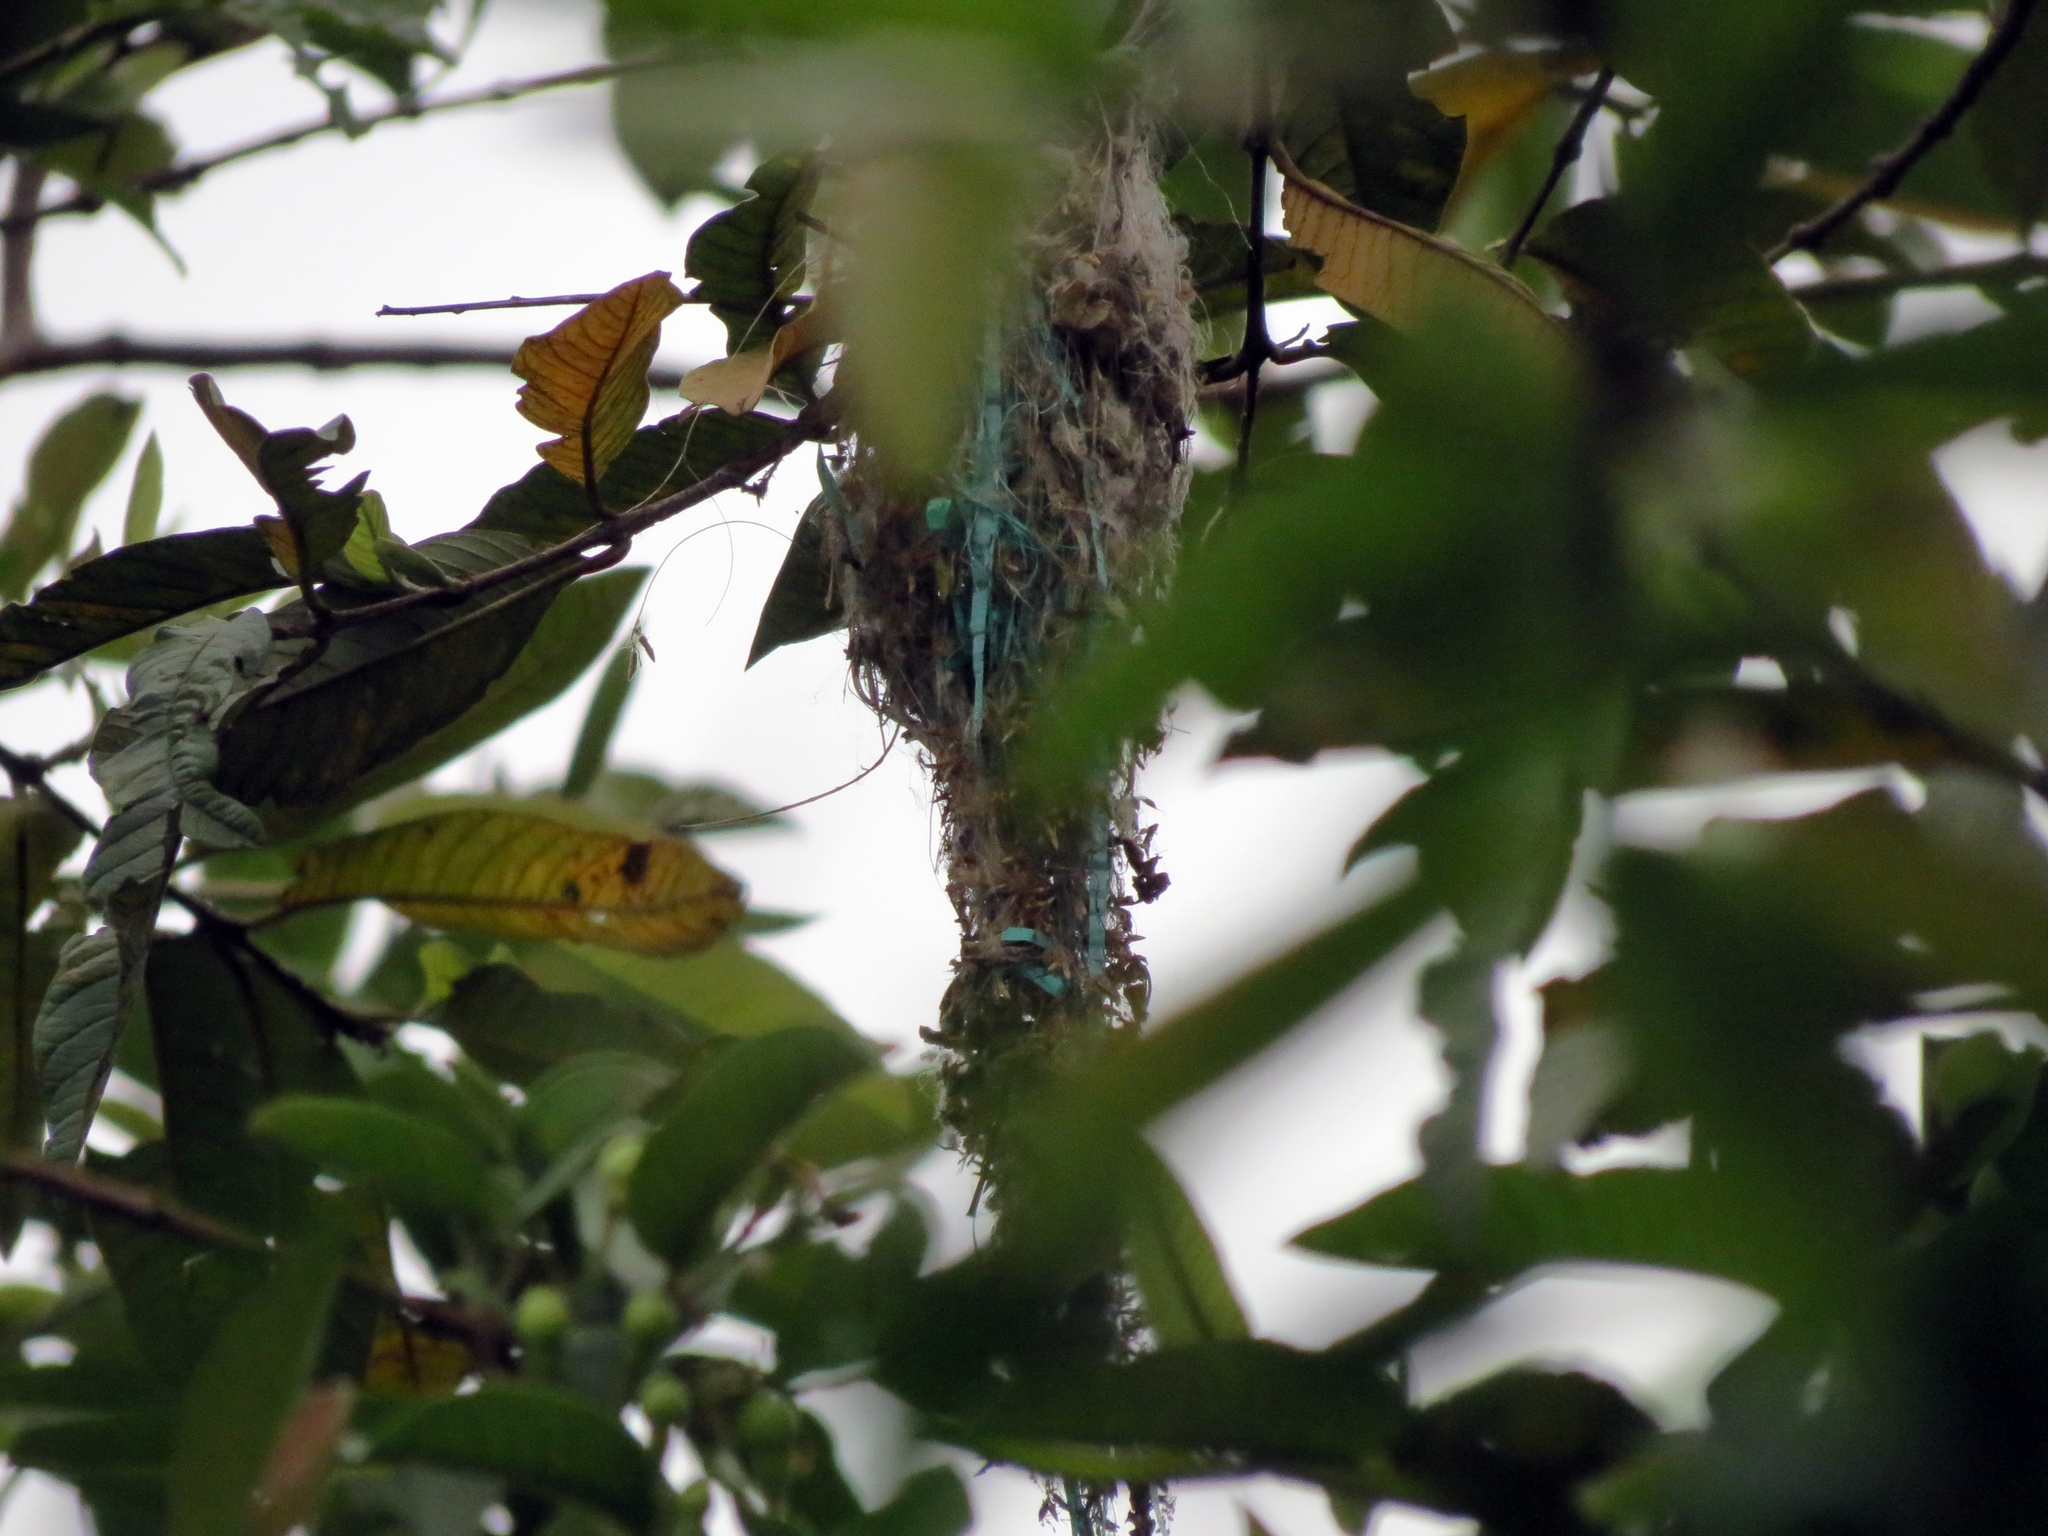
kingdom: Animalia
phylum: Chordata
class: Aves
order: Passeriformes
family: Tyrannidae
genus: Todirostrum
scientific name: Todirostrum cinereum
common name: Common tody-flycatcher
